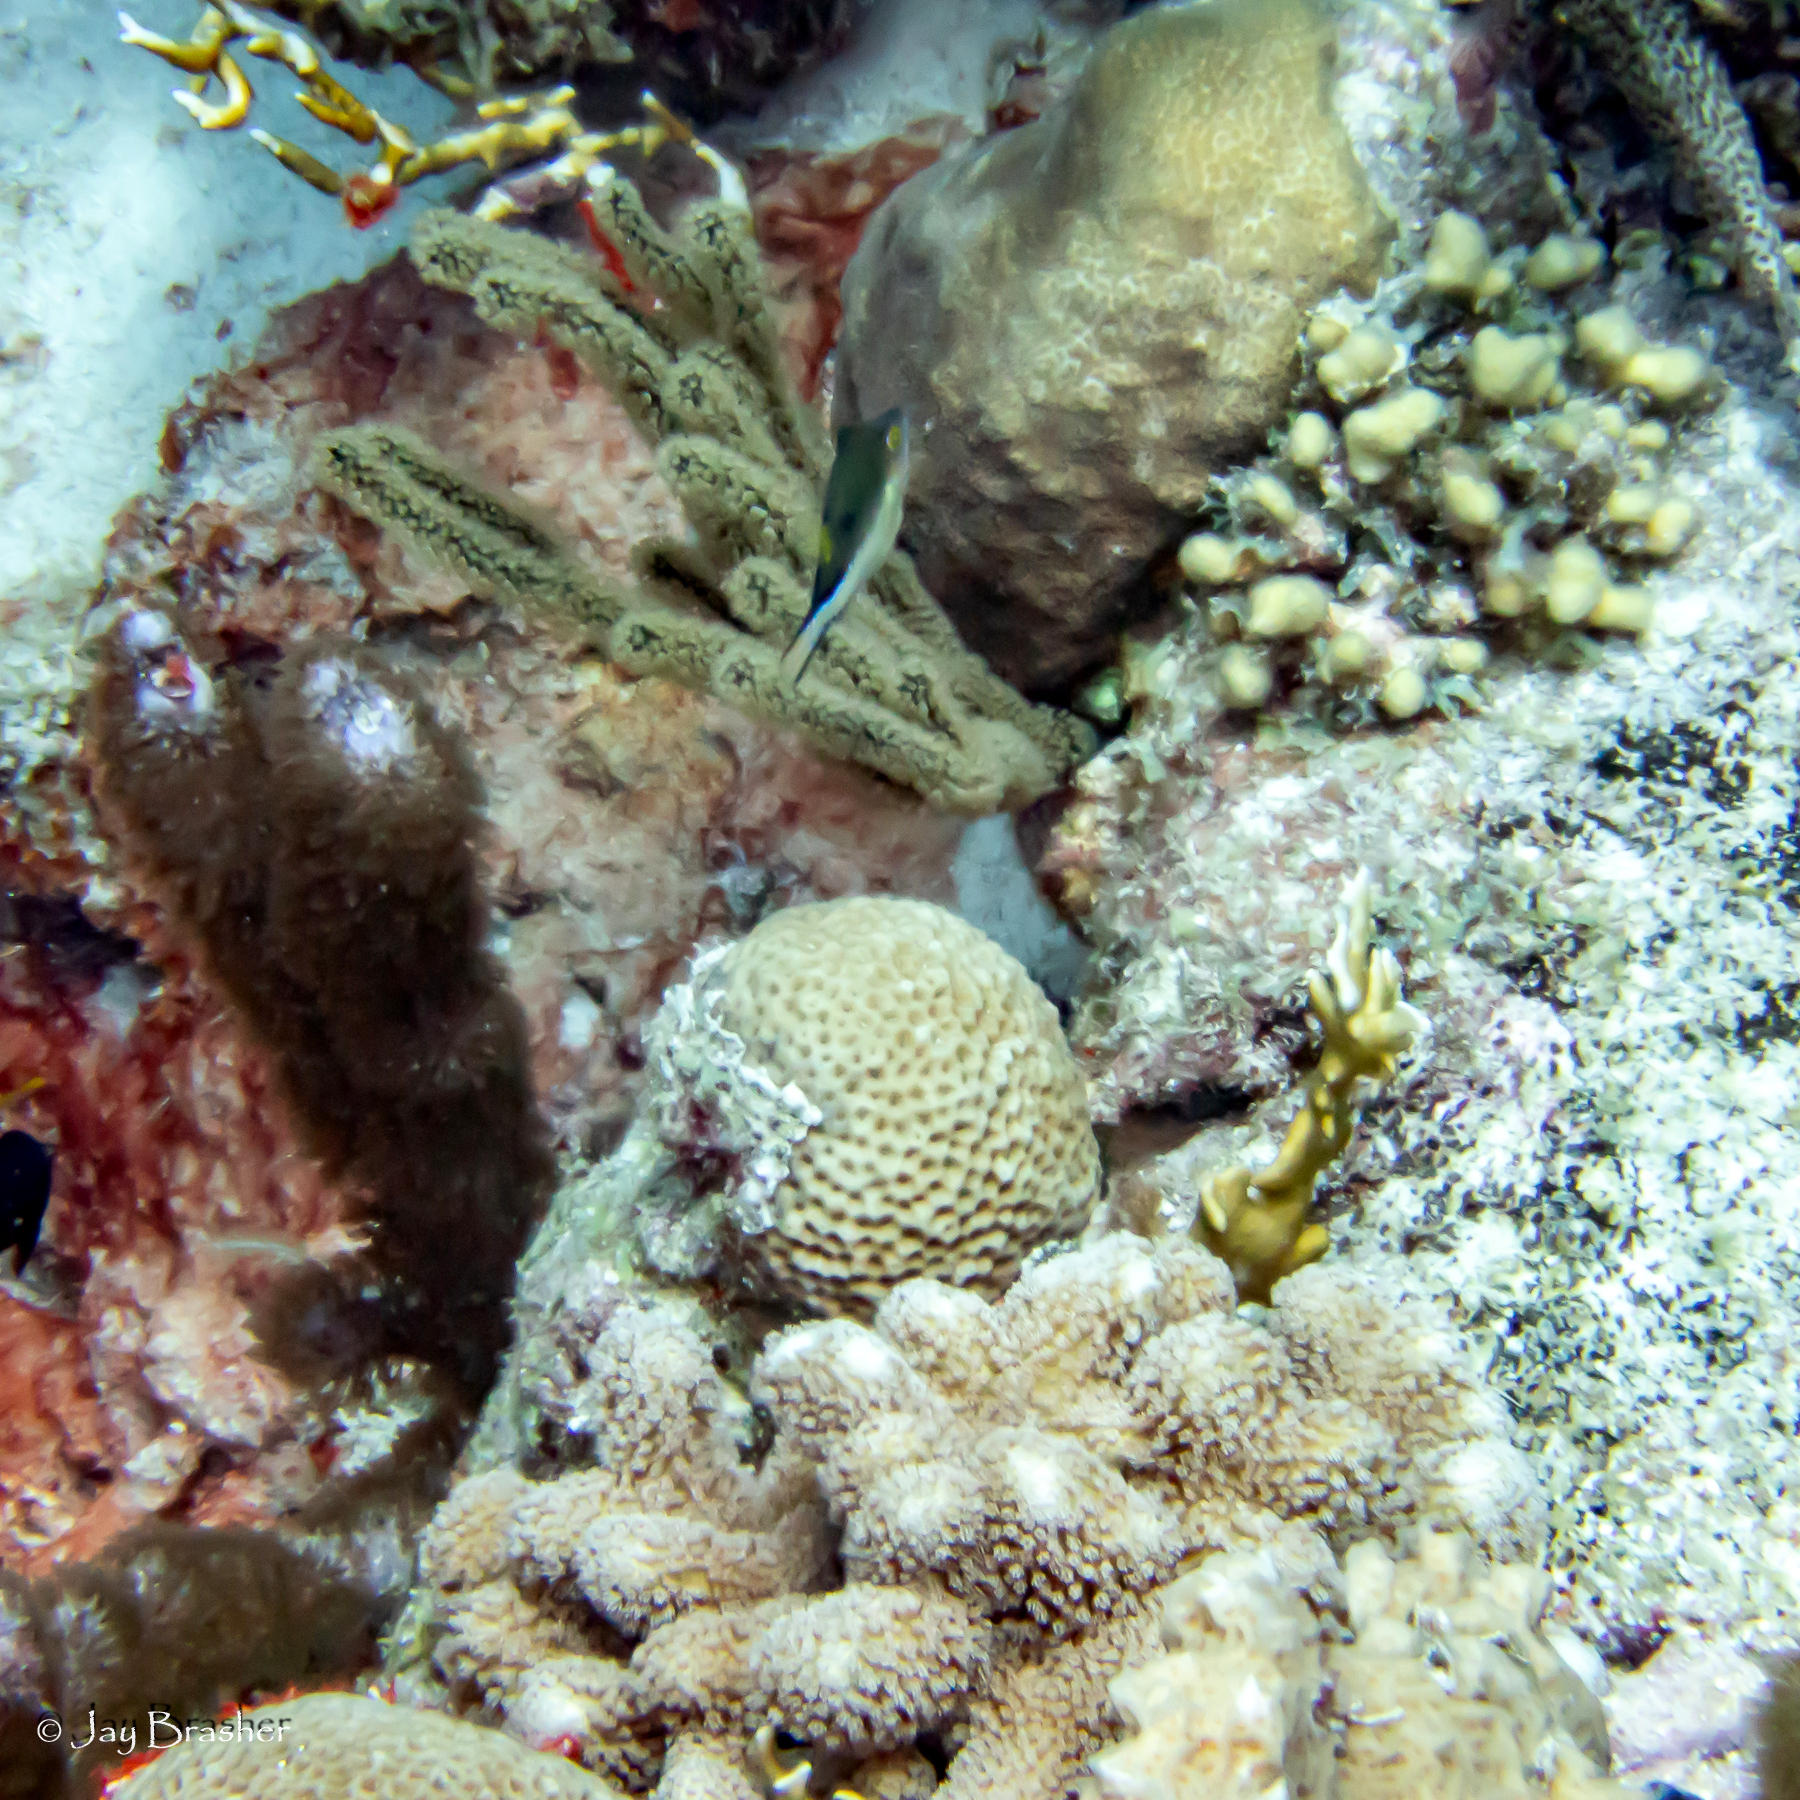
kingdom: Animalia
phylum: Chordata
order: Tetraodontiformes
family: Tetraodontidae
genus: Canthigaster
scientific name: Canthigaster rostrata
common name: Caribbean sharpnose-puffer
